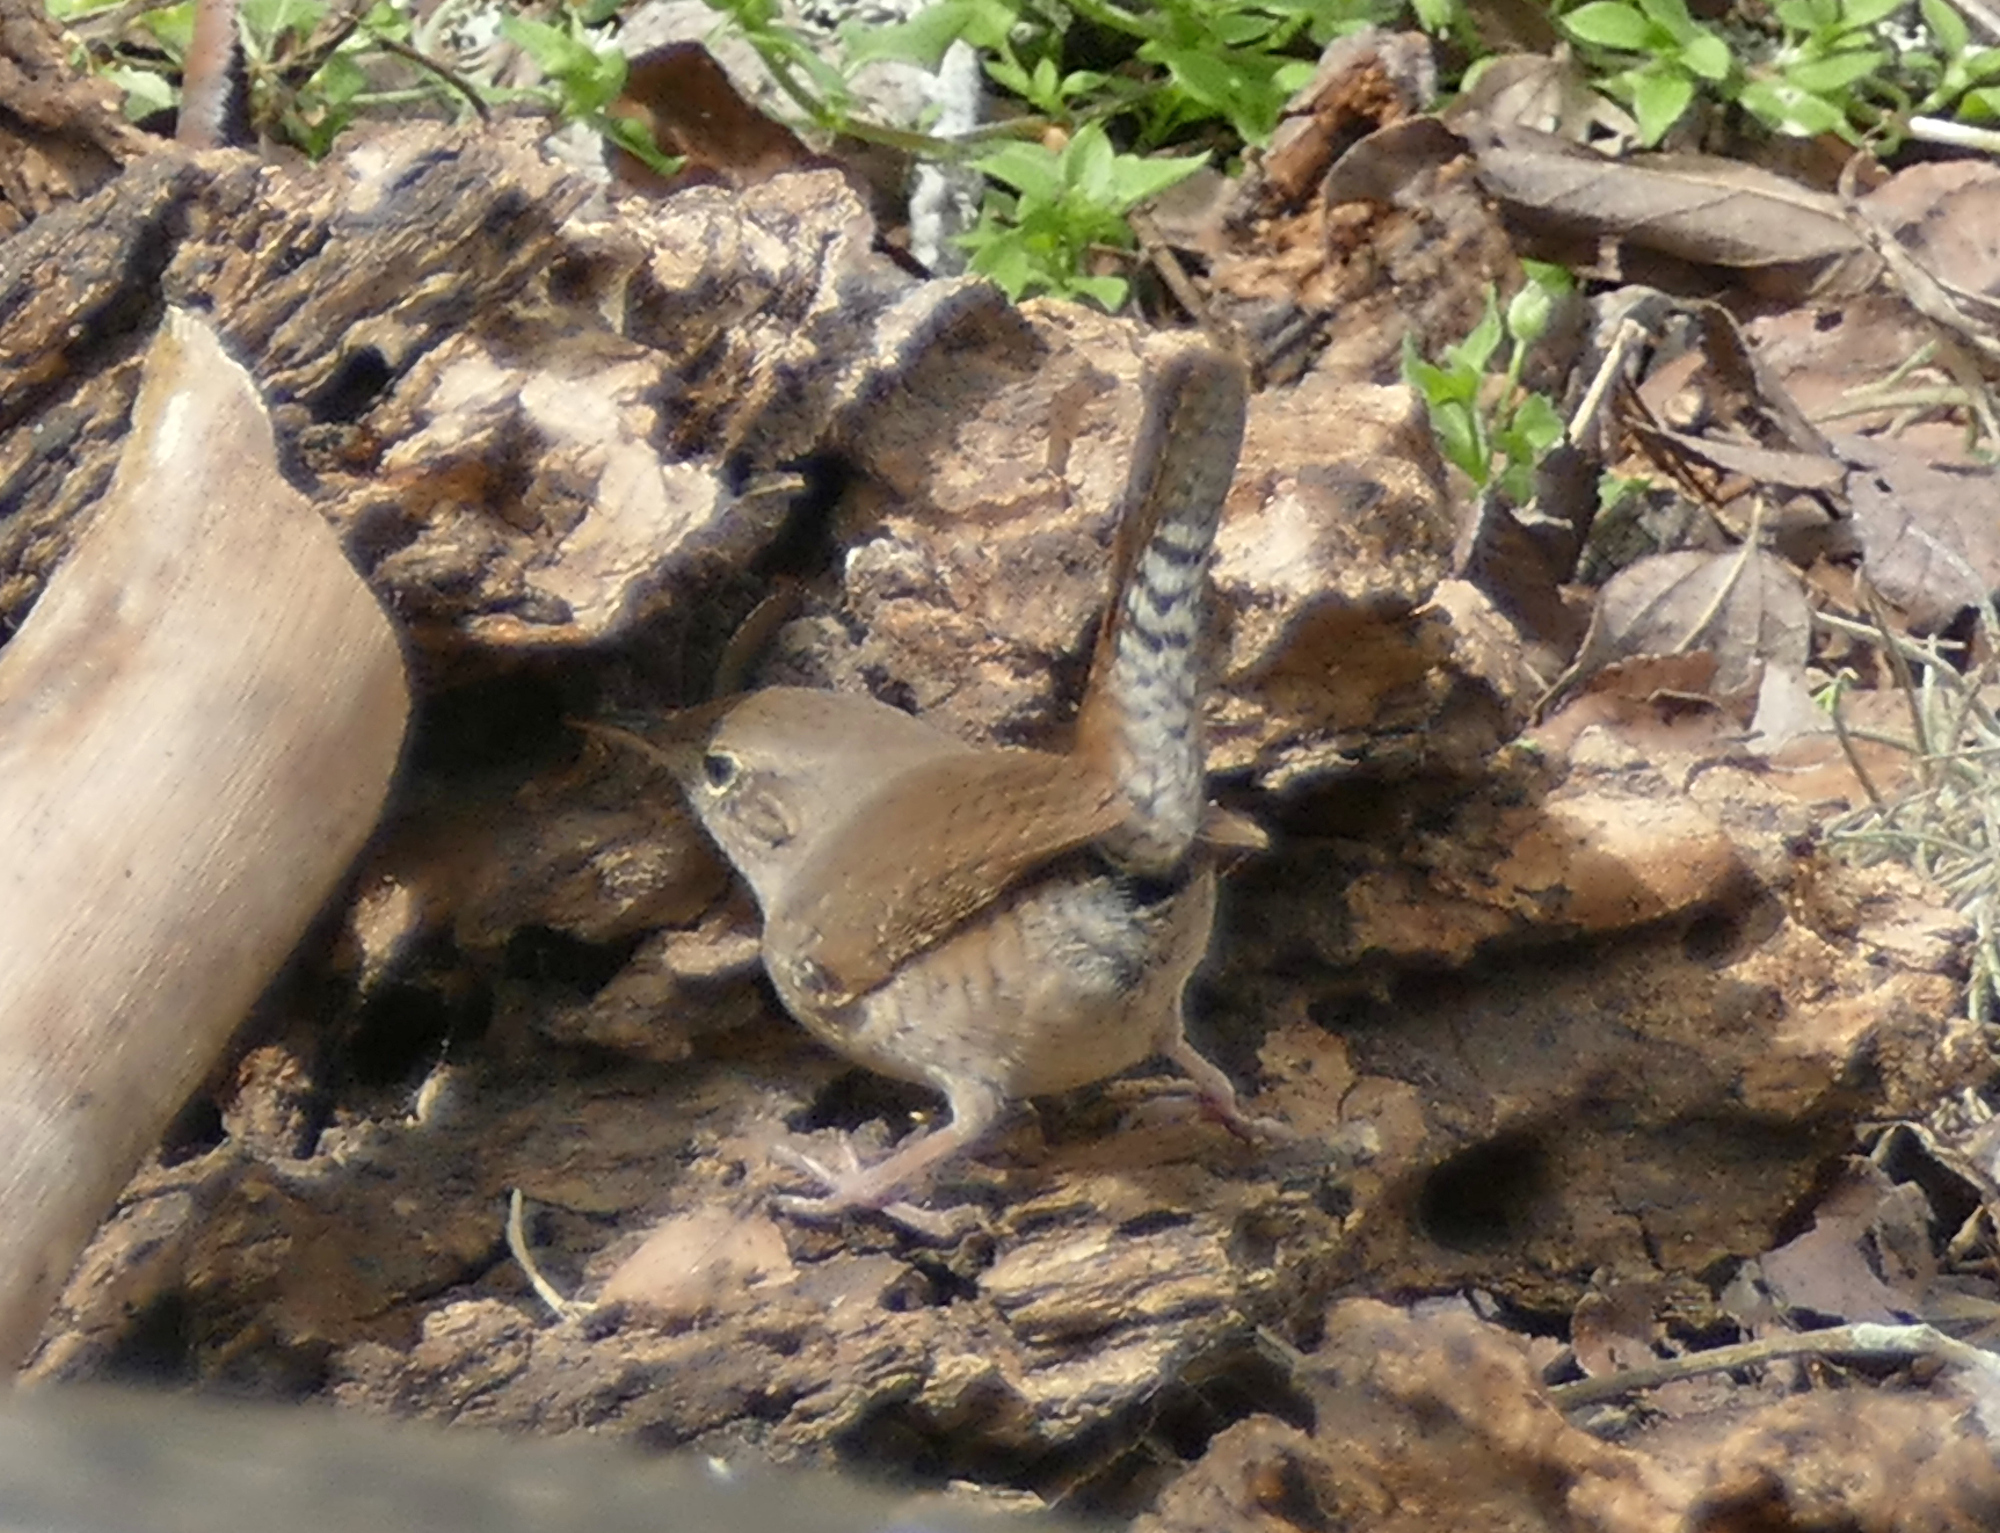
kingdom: Animalia
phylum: Chordata
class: Aves
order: Passeriformes
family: Troglodytidae
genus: Troglodytes
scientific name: Troglodytes aedon
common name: House wren
